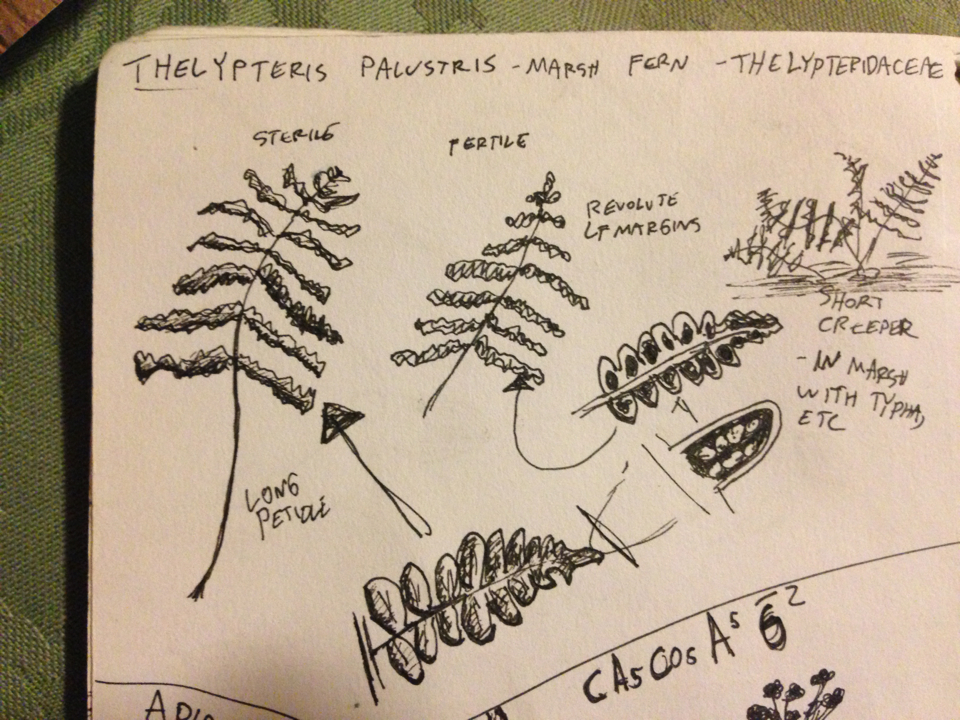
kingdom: Plantae
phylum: Tracheophyta
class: Polypodiopsida
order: Polypodiales
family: Thelypteridaceae
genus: Thelypteris
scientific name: Thelypteris palustris
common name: Marsh fern
